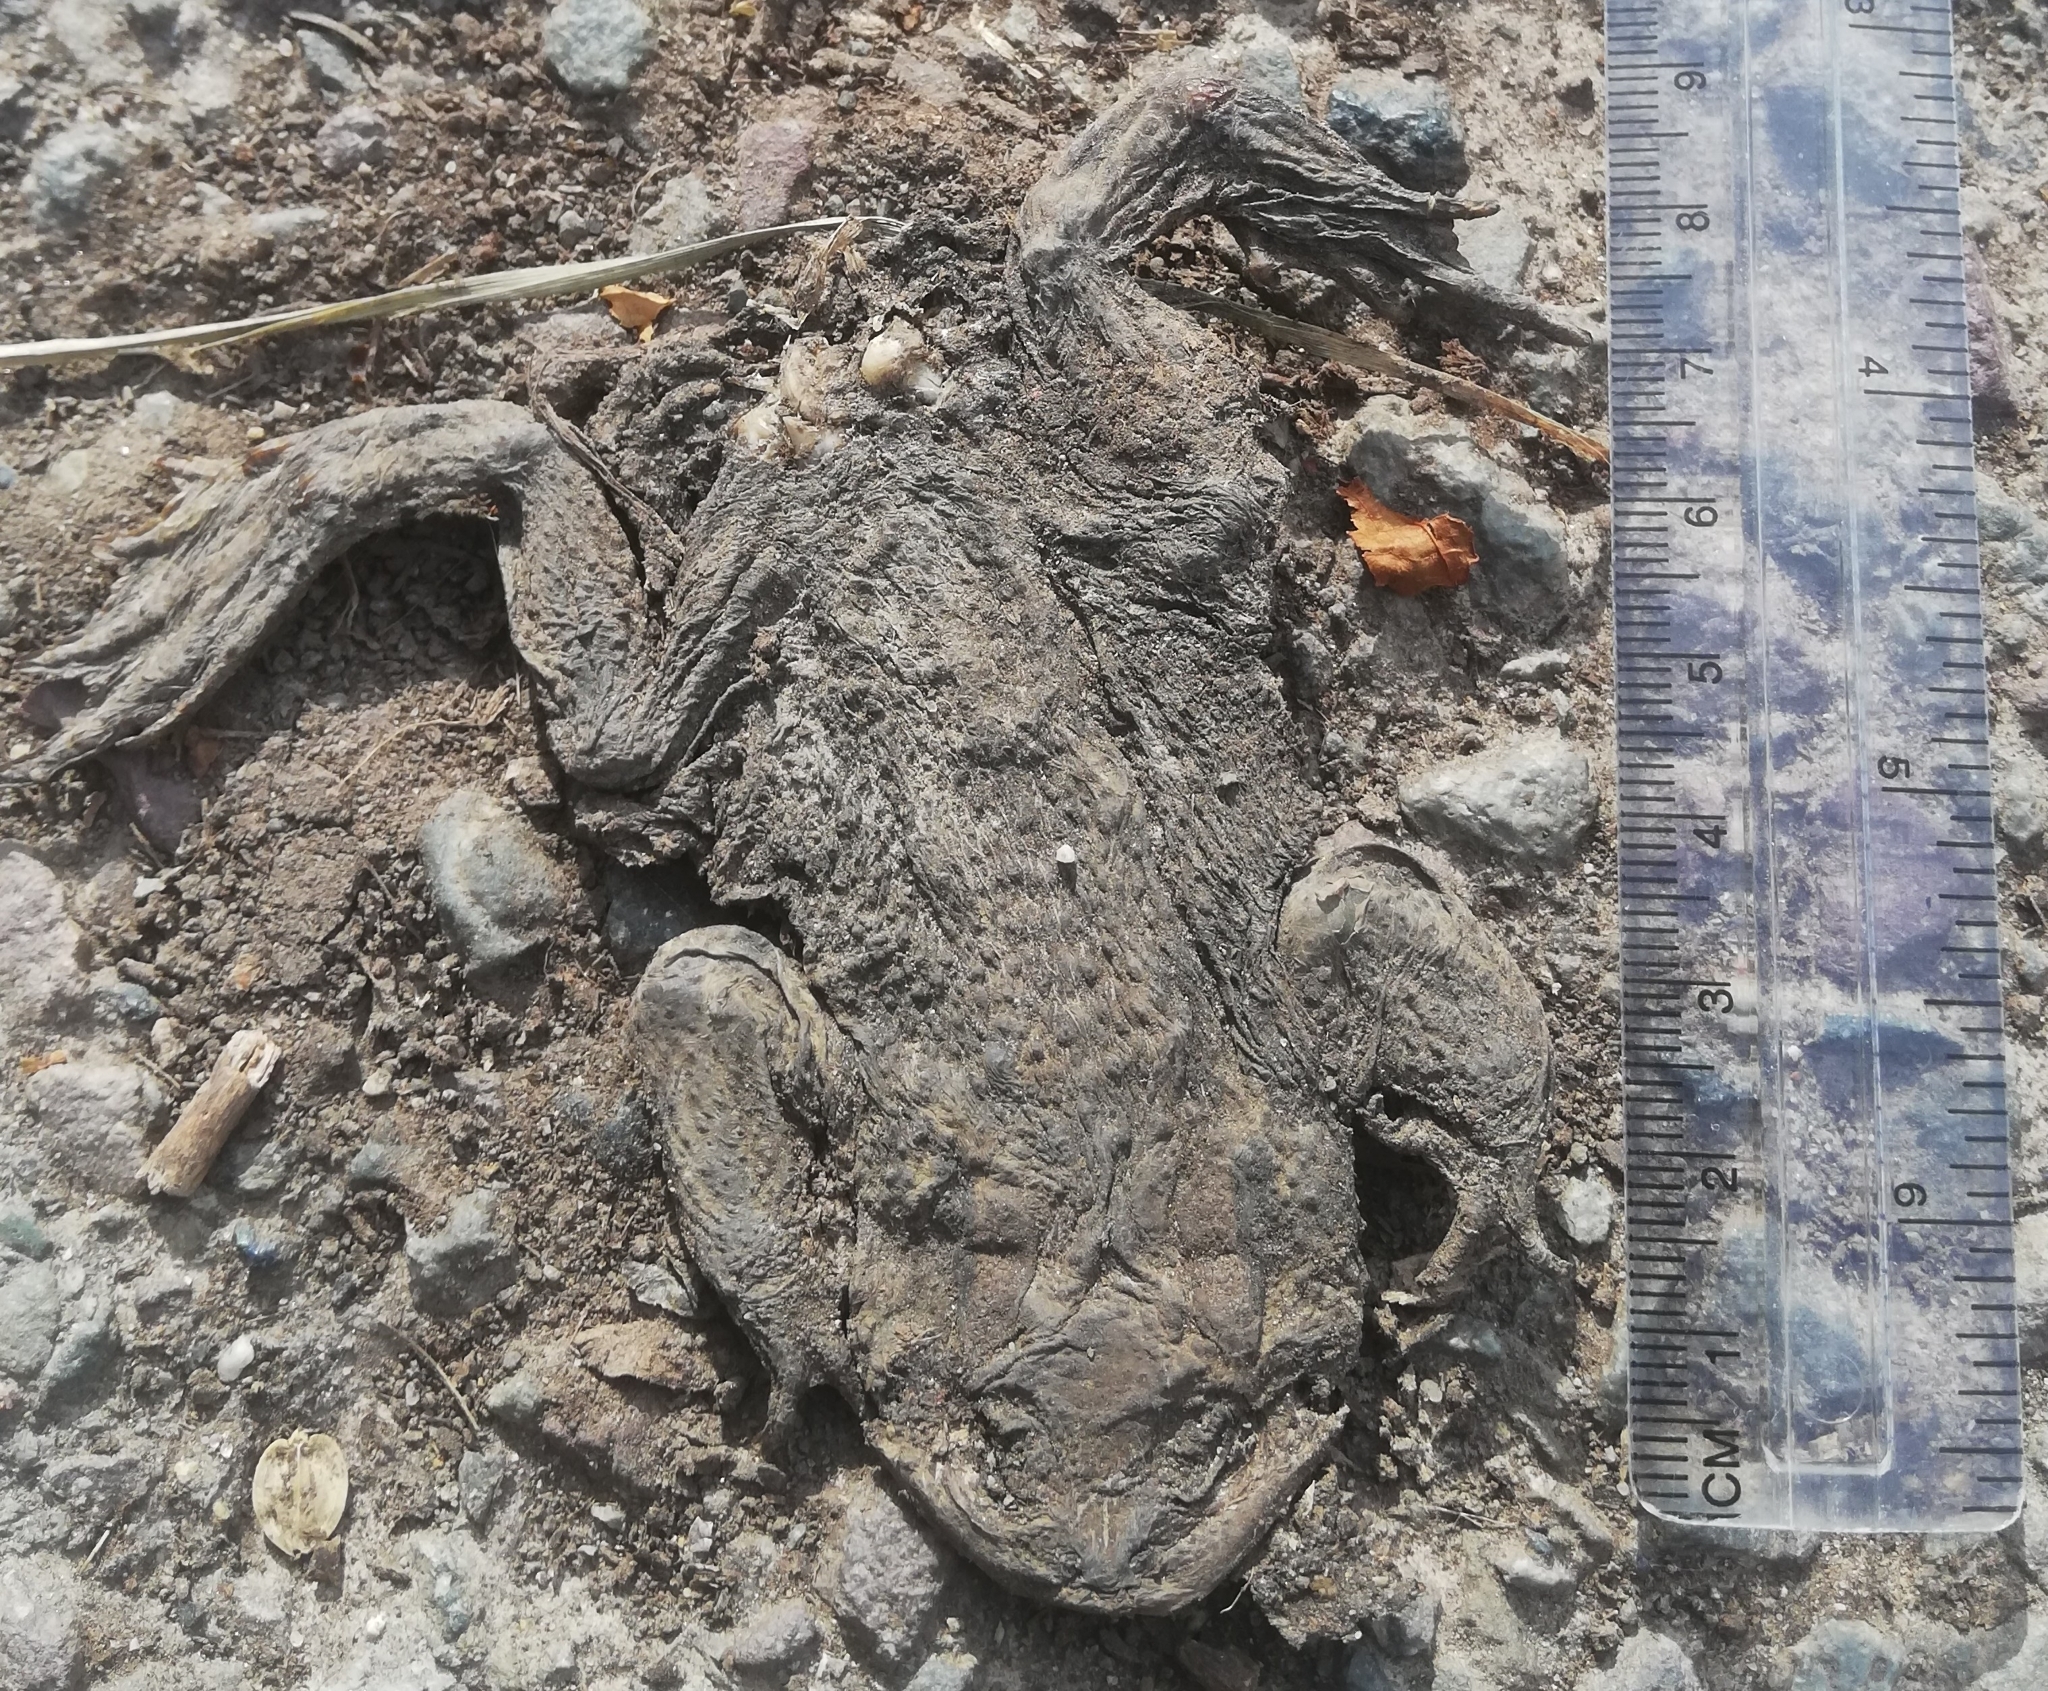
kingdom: Animalia
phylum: Chordata
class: Amphibia
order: Anura
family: Bufonidae
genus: Bufo
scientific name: Bufo bufo
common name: Common toad
